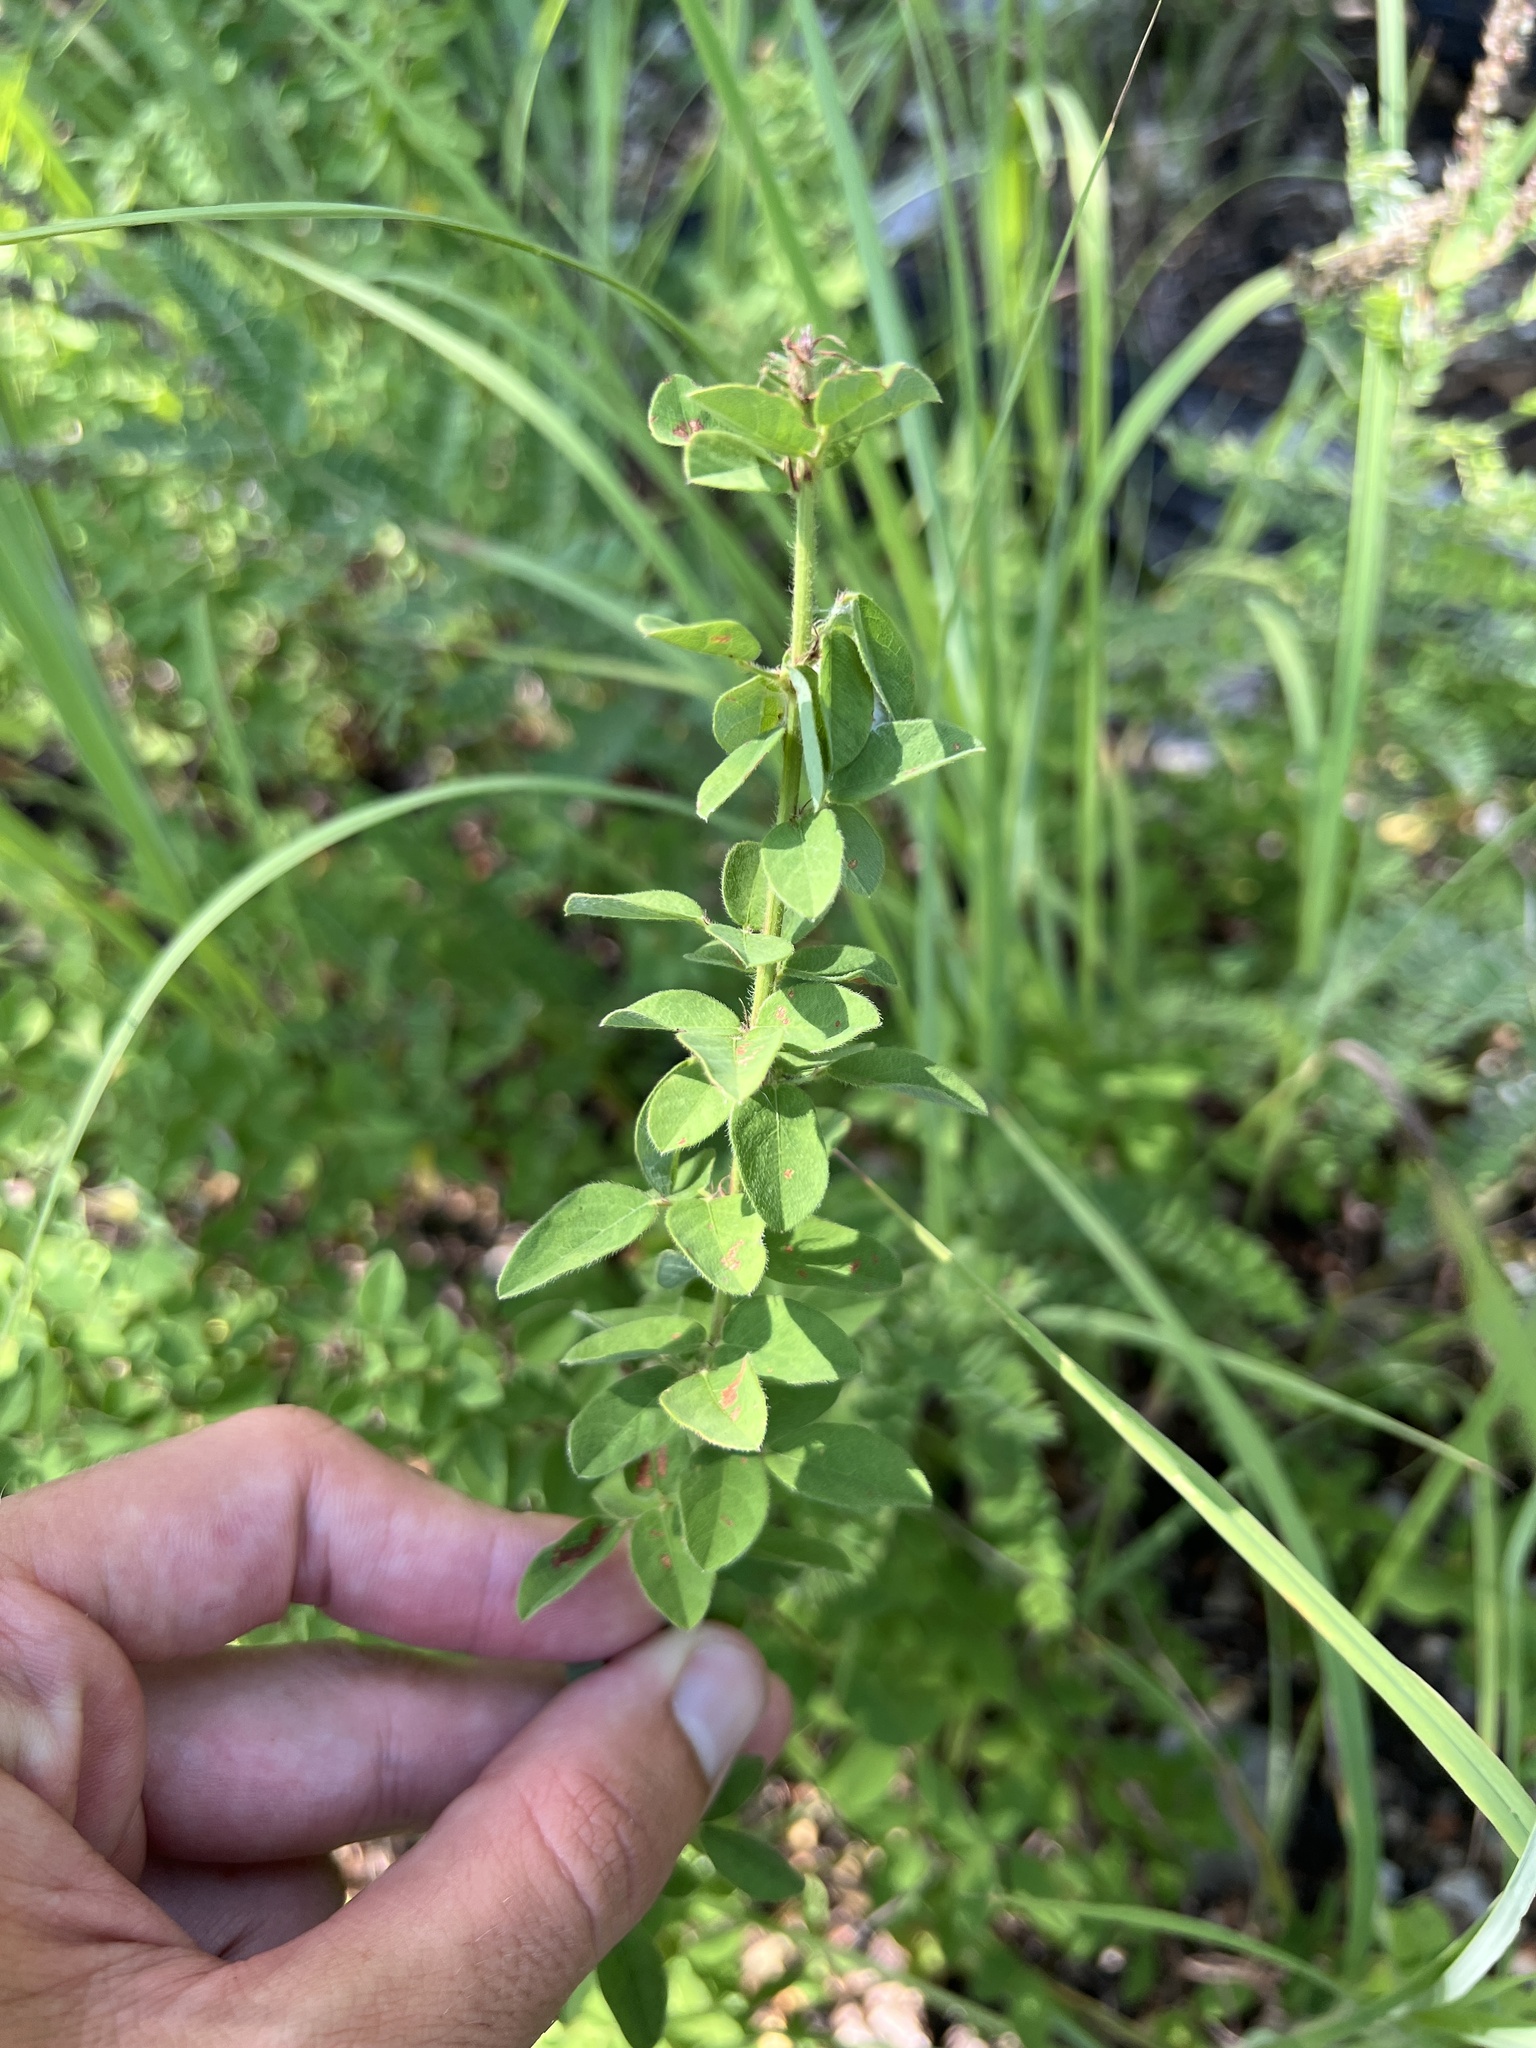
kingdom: Plantae
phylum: Tracheophyta
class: Magnoliopsida
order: Fabales
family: Fabaceae
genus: Desmodium
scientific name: Desmodium ciliare
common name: Hairy small-leaf ticktrefoil
